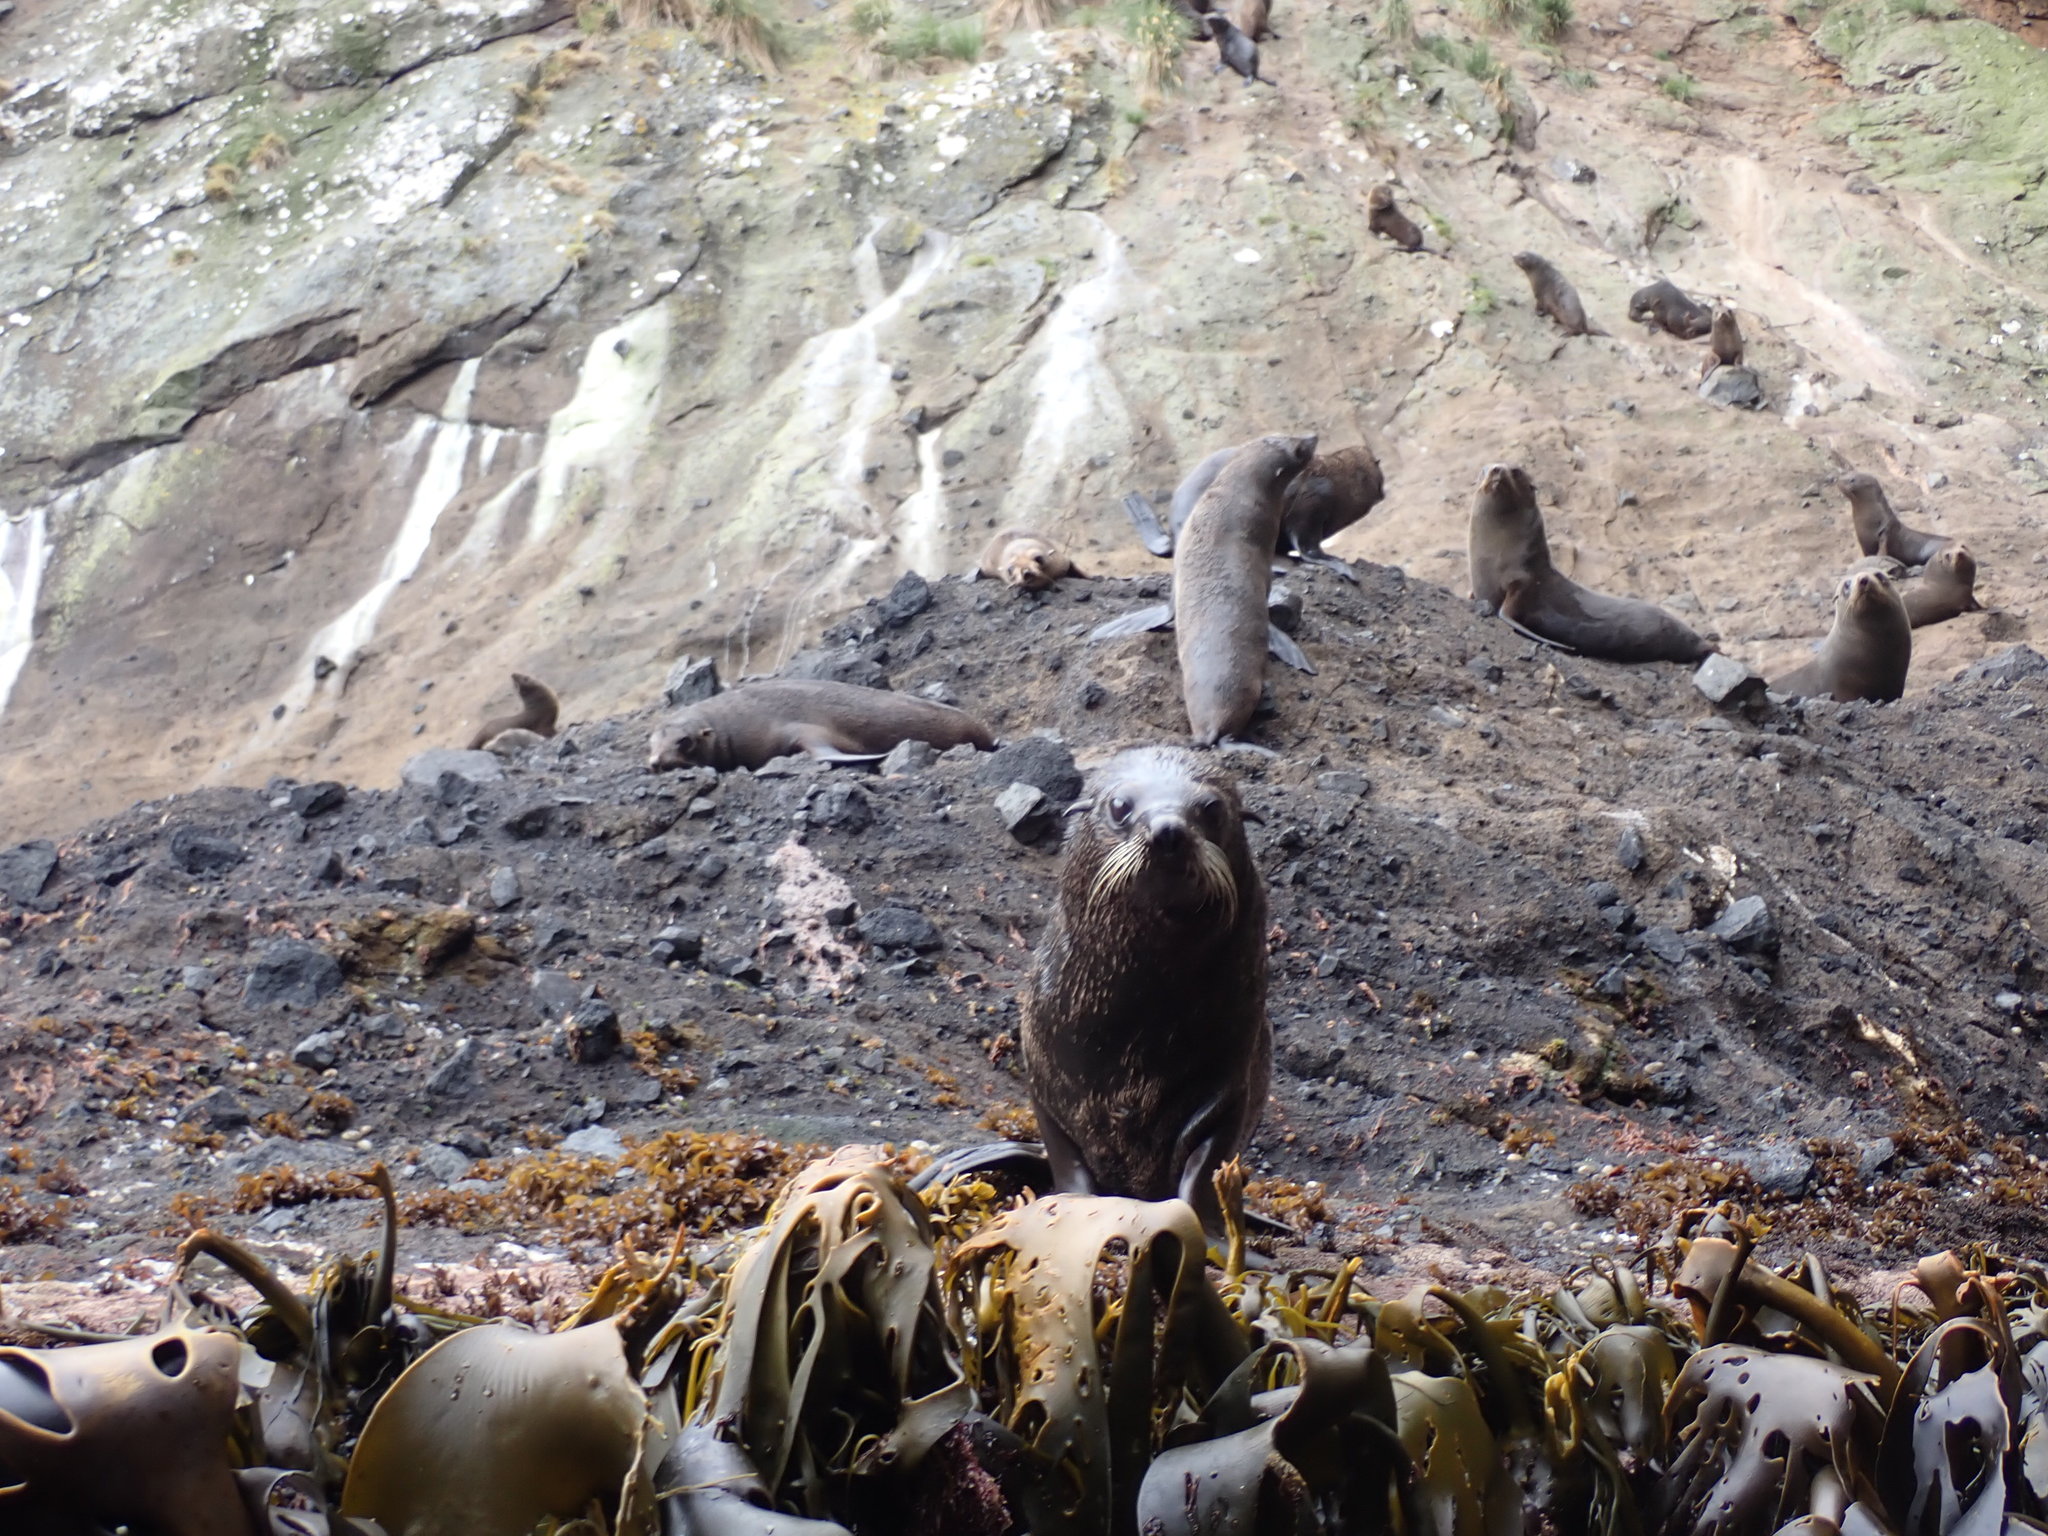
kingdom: Animalia
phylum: Chordata
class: Mammalia
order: Carnivora
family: Otariidae
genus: Arctocephalus
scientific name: Arctocephalus forsteri
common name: New zealand fur seal
